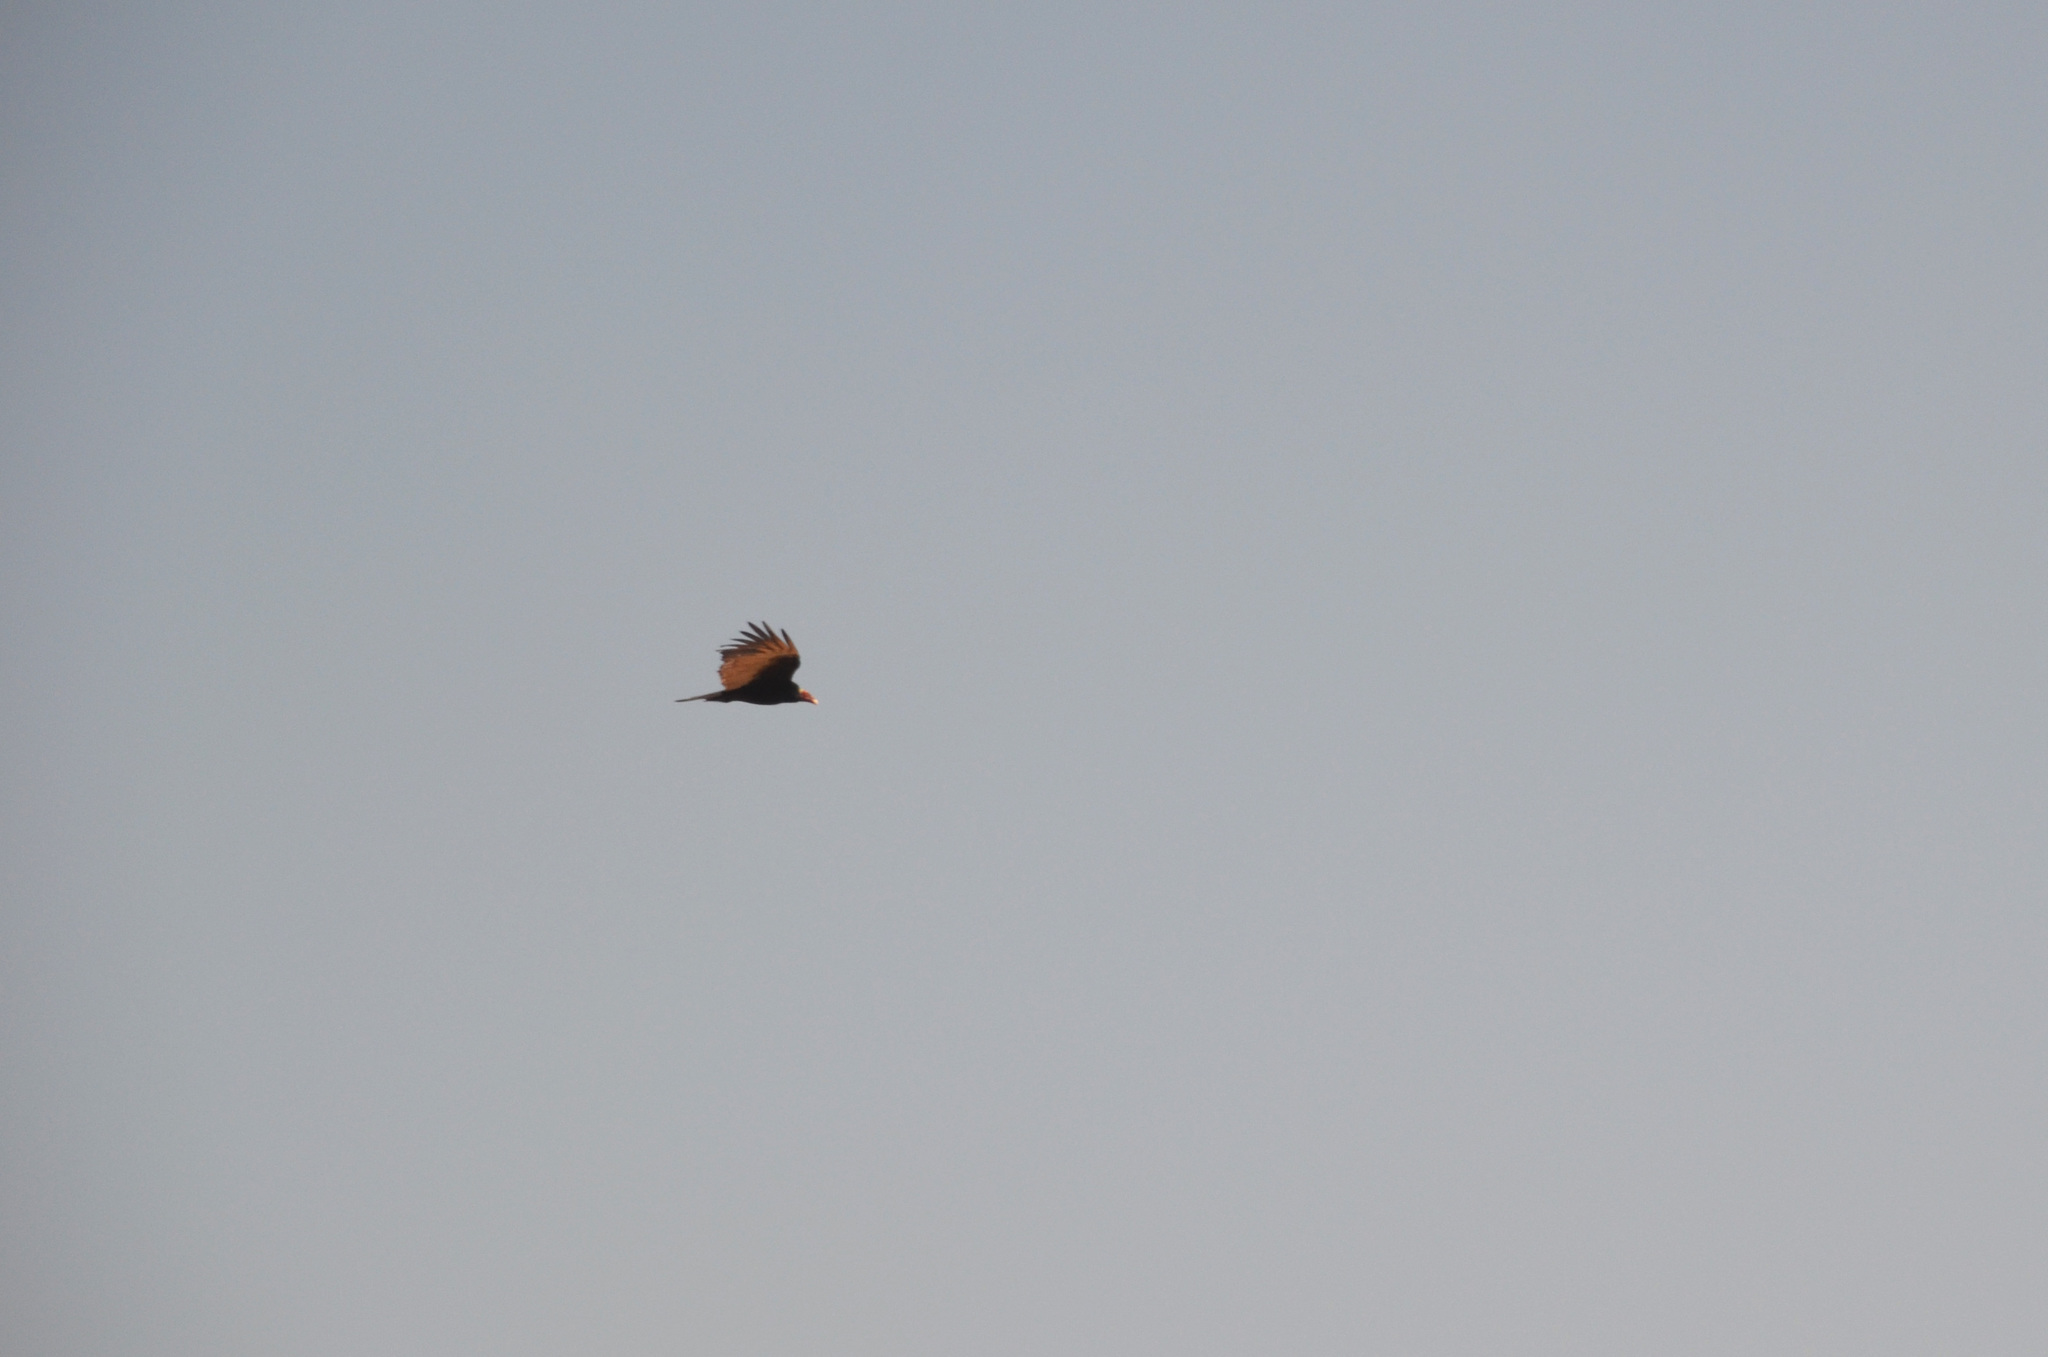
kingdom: Animalia
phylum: Chordata
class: Aves
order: Accipitriformes
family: Cathartidae
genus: Cathartes
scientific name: Cathartes aura
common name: Turkey vulture
